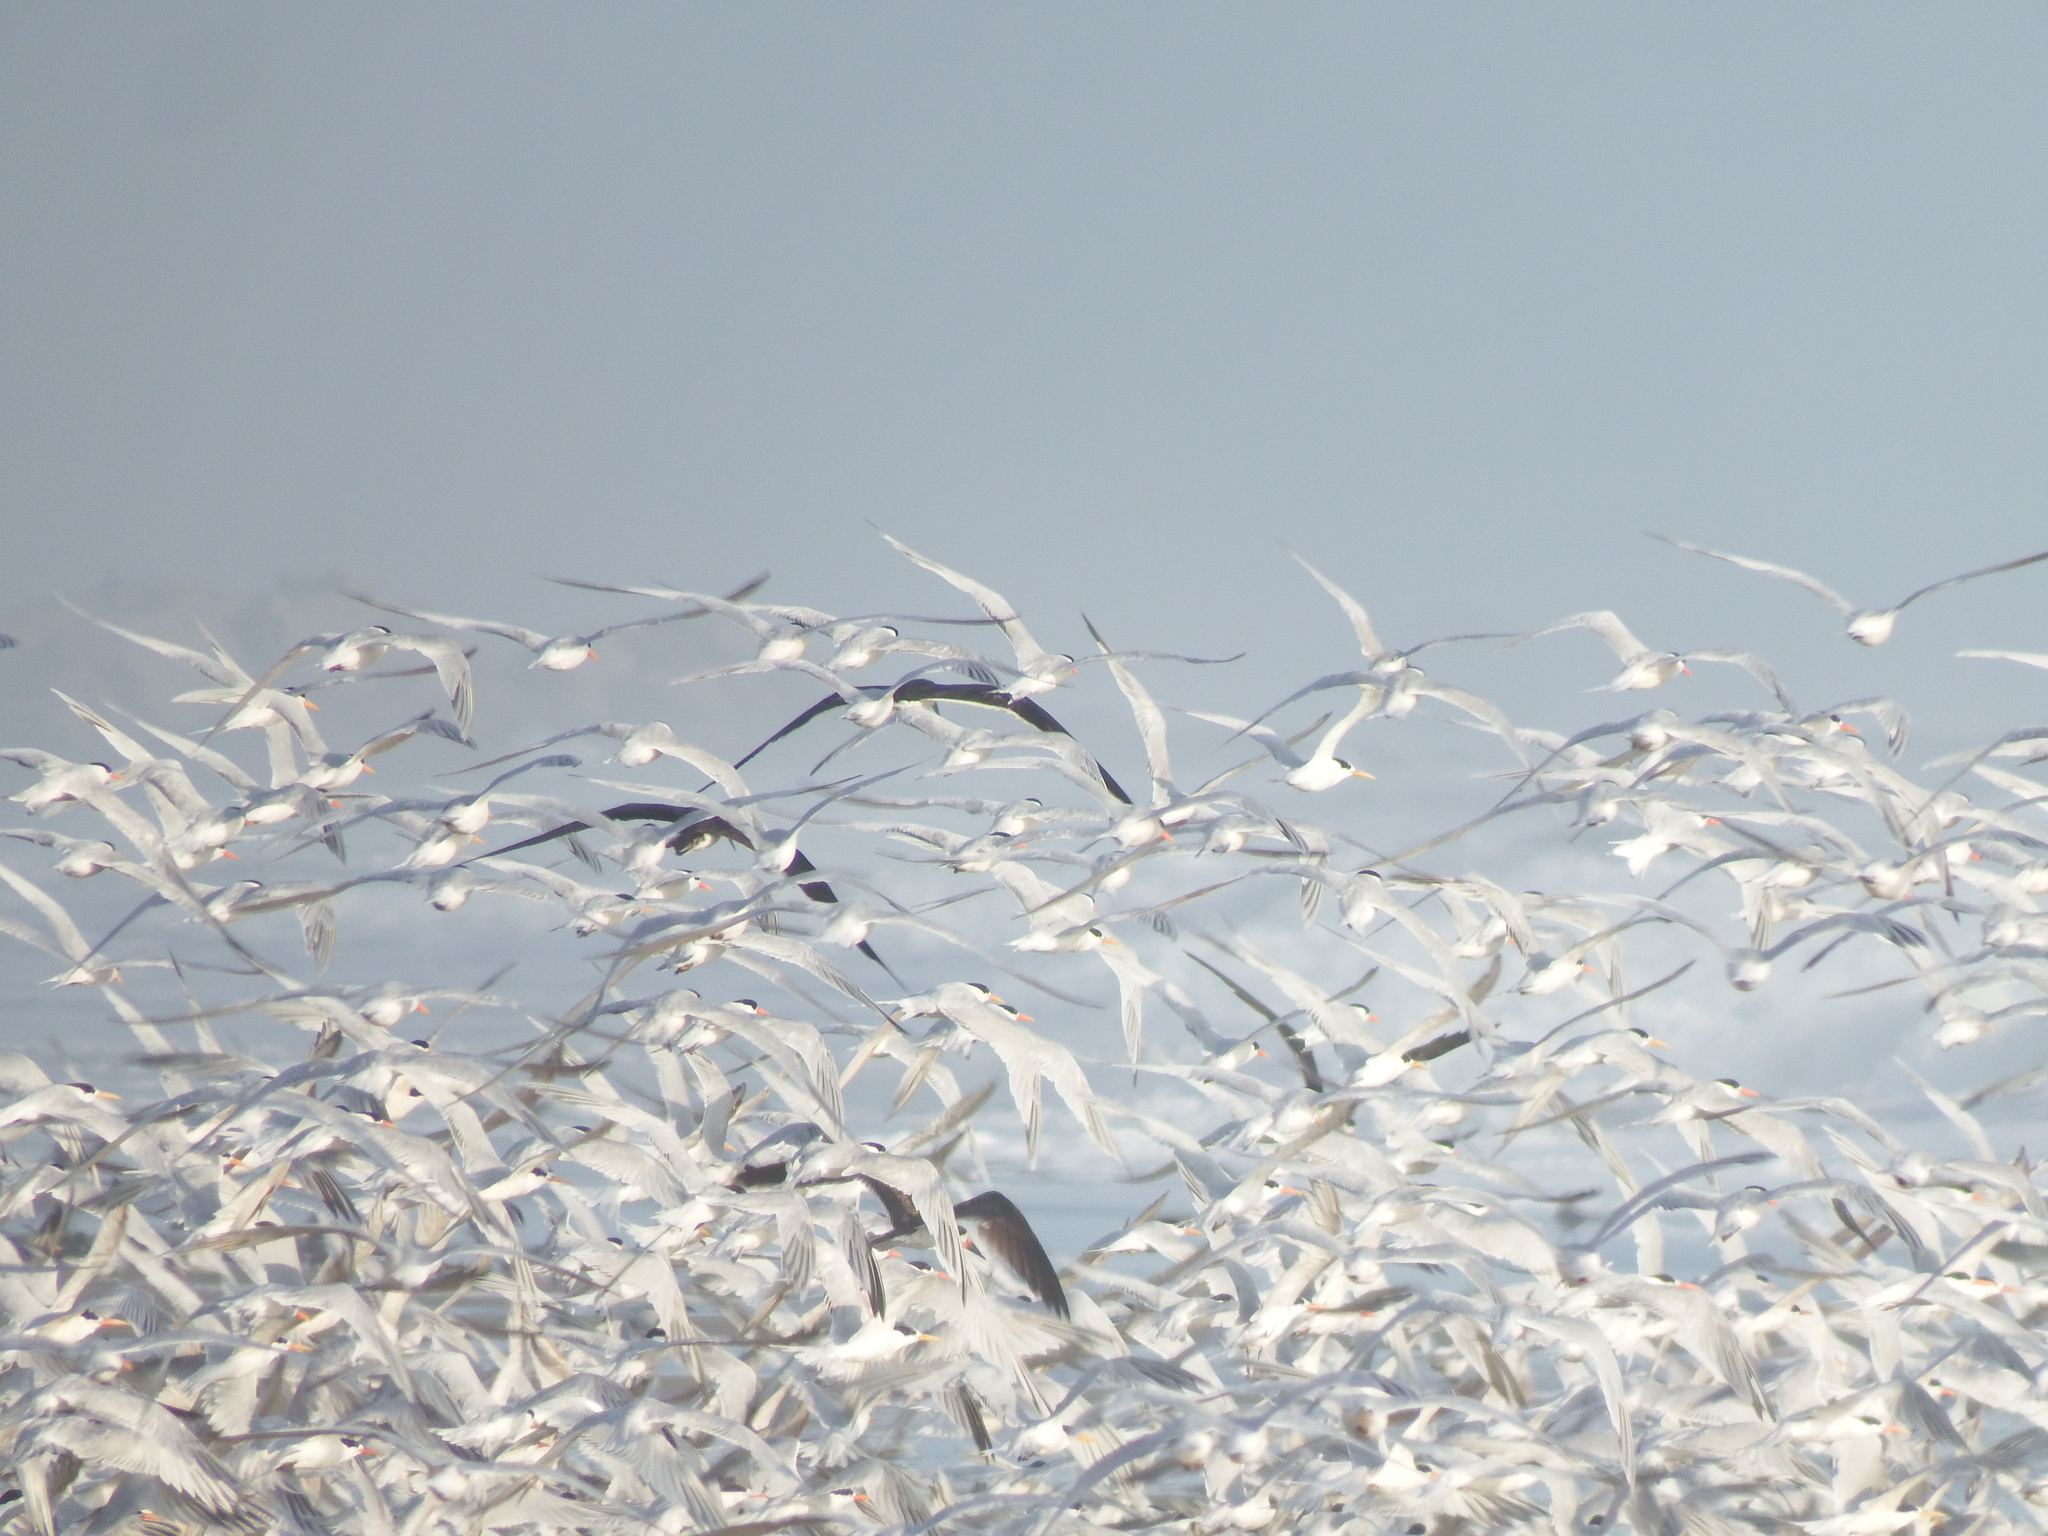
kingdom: Animalia
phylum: Chordata
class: Aves
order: Charadriiformes
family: Laridae
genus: Thalasseus
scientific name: Thalasseus elegans
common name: Elegant tern
